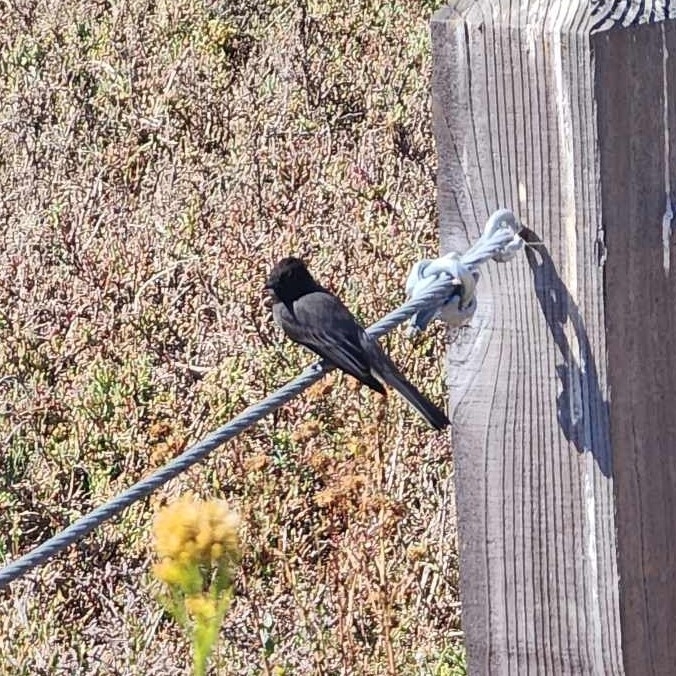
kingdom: Animalia
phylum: Chordata
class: Aves
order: Passeriformes
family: Tyrannidae
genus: Sayornis
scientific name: Sayornis nigricans
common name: Black phoebe
